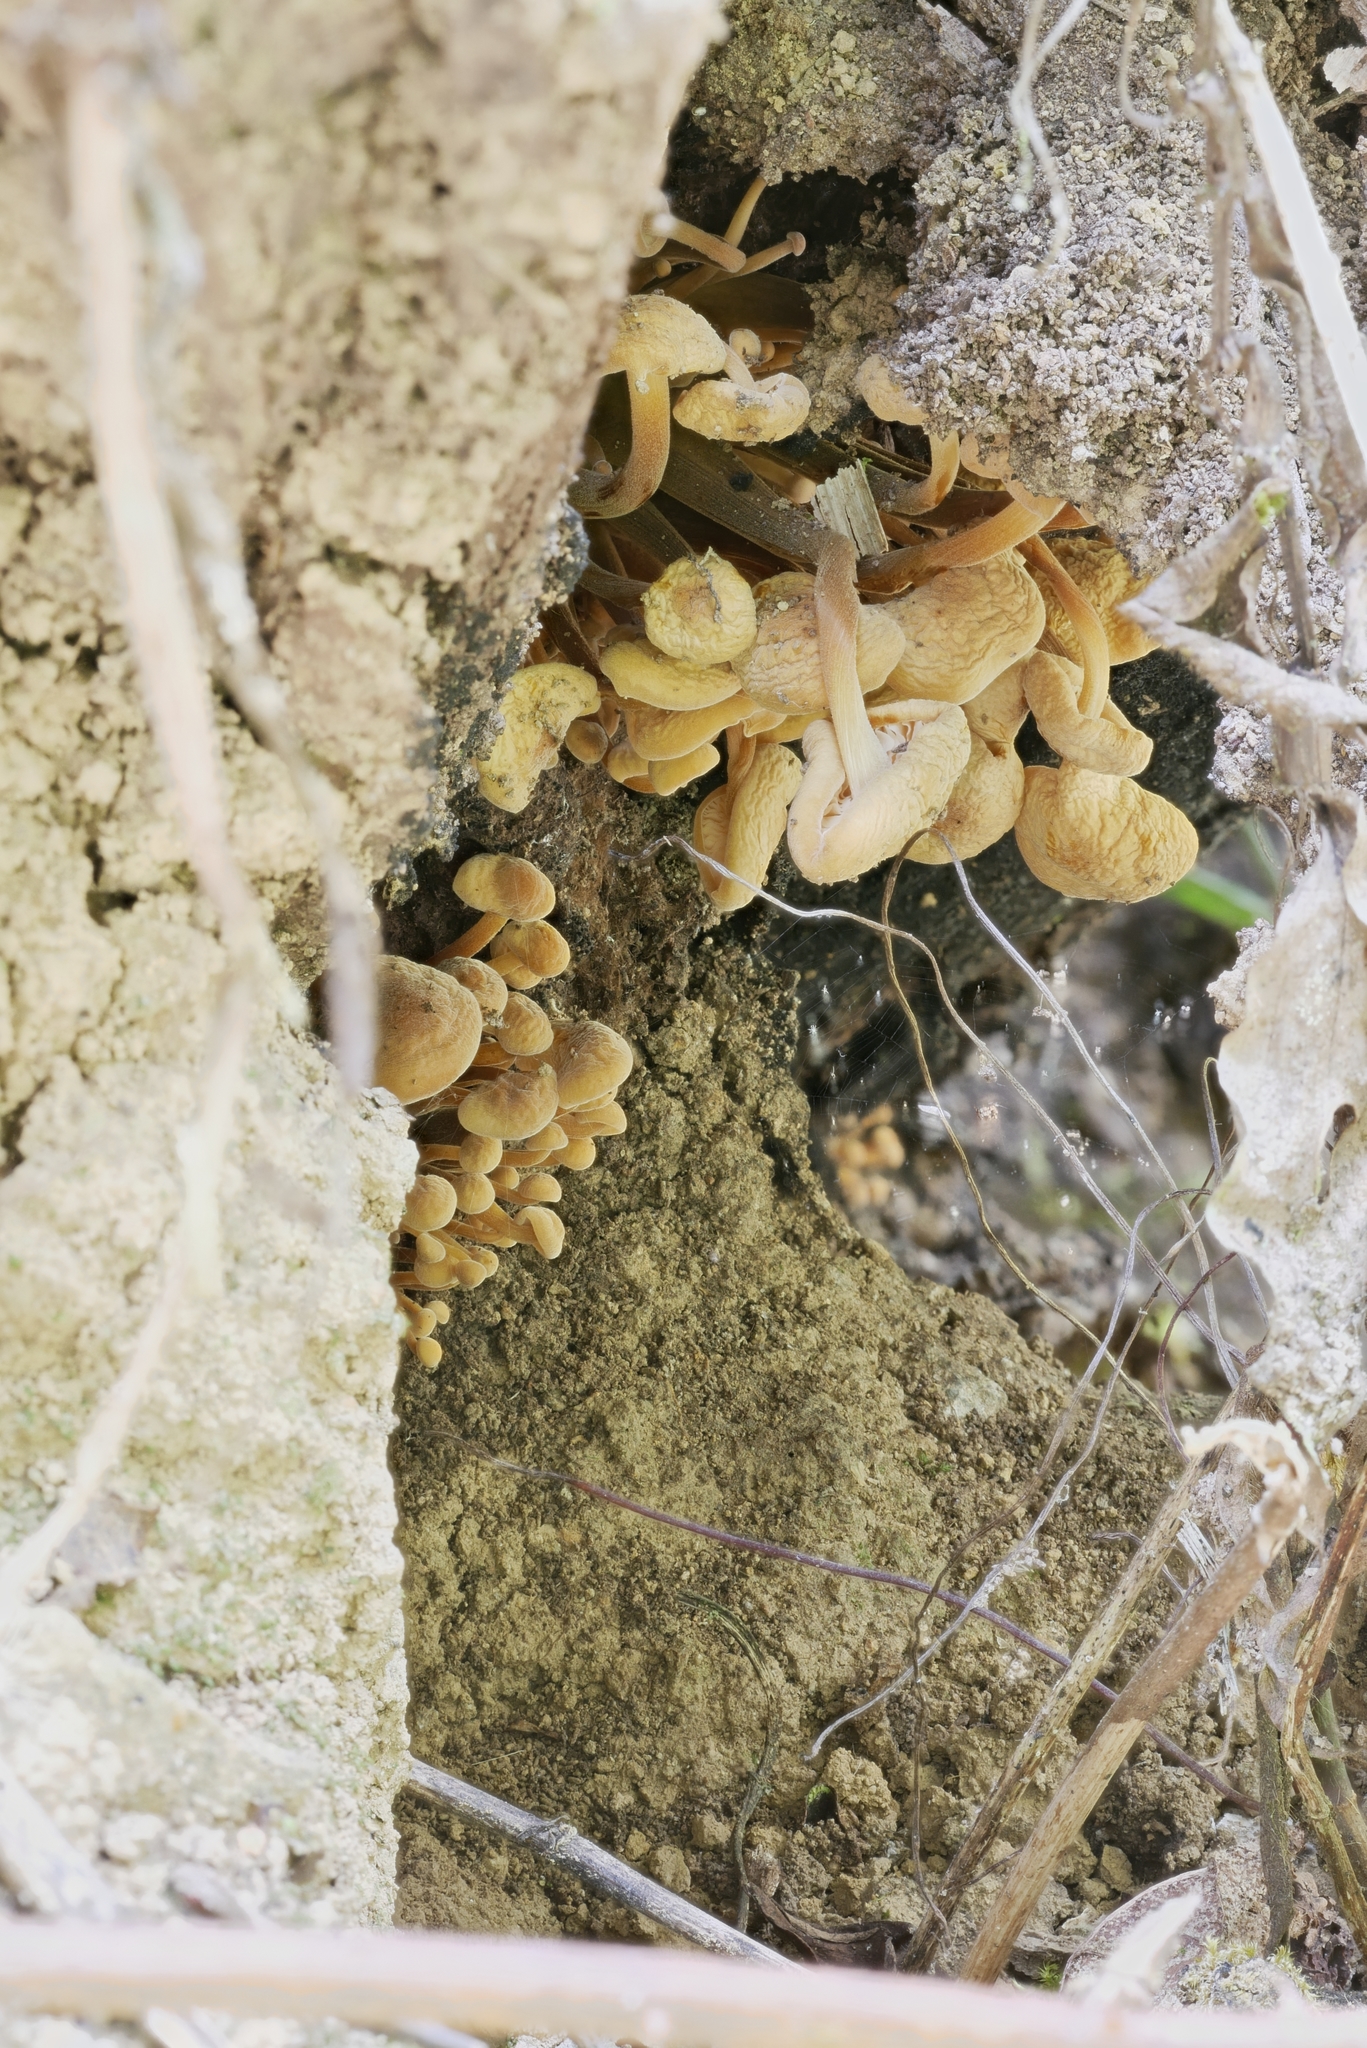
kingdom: Fungi
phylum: Basidiomycota
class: Agaricomycetes
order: Agaricales
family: Physalacriaceae
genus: Flammulina
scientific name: Flammulina mexicana
